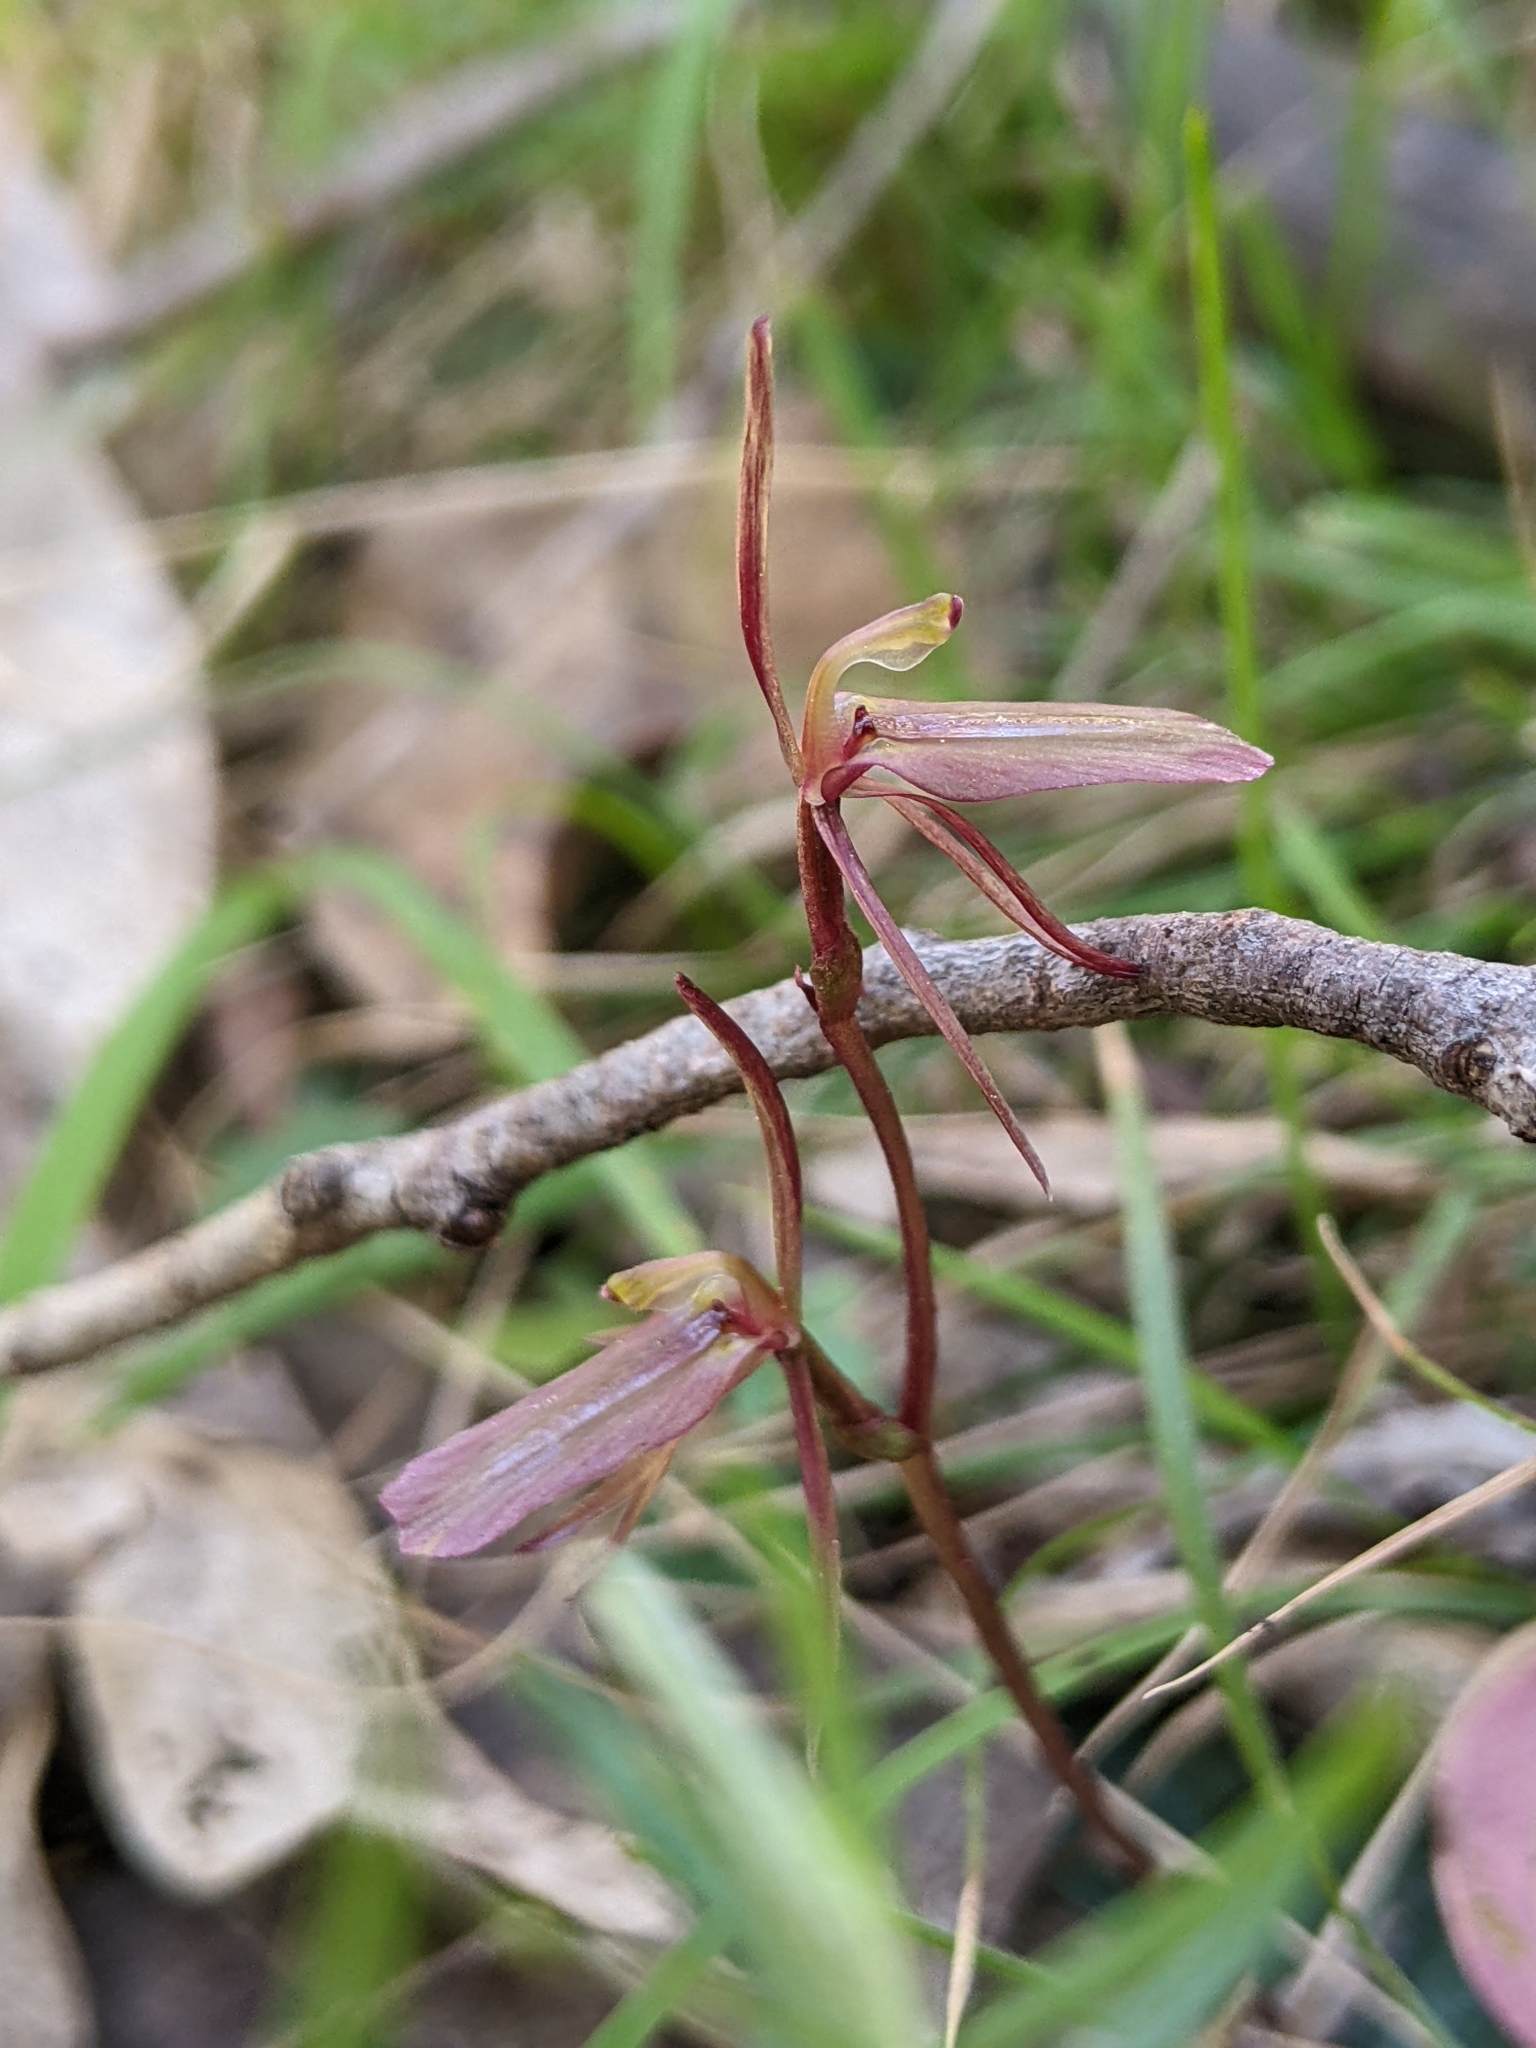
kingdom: Plantae
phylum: Tracheophyta
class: Liliopsida
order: Asparagales
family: Orchidaceae
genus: Cyrtostylis
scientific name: Cyrtostylis reniformis
